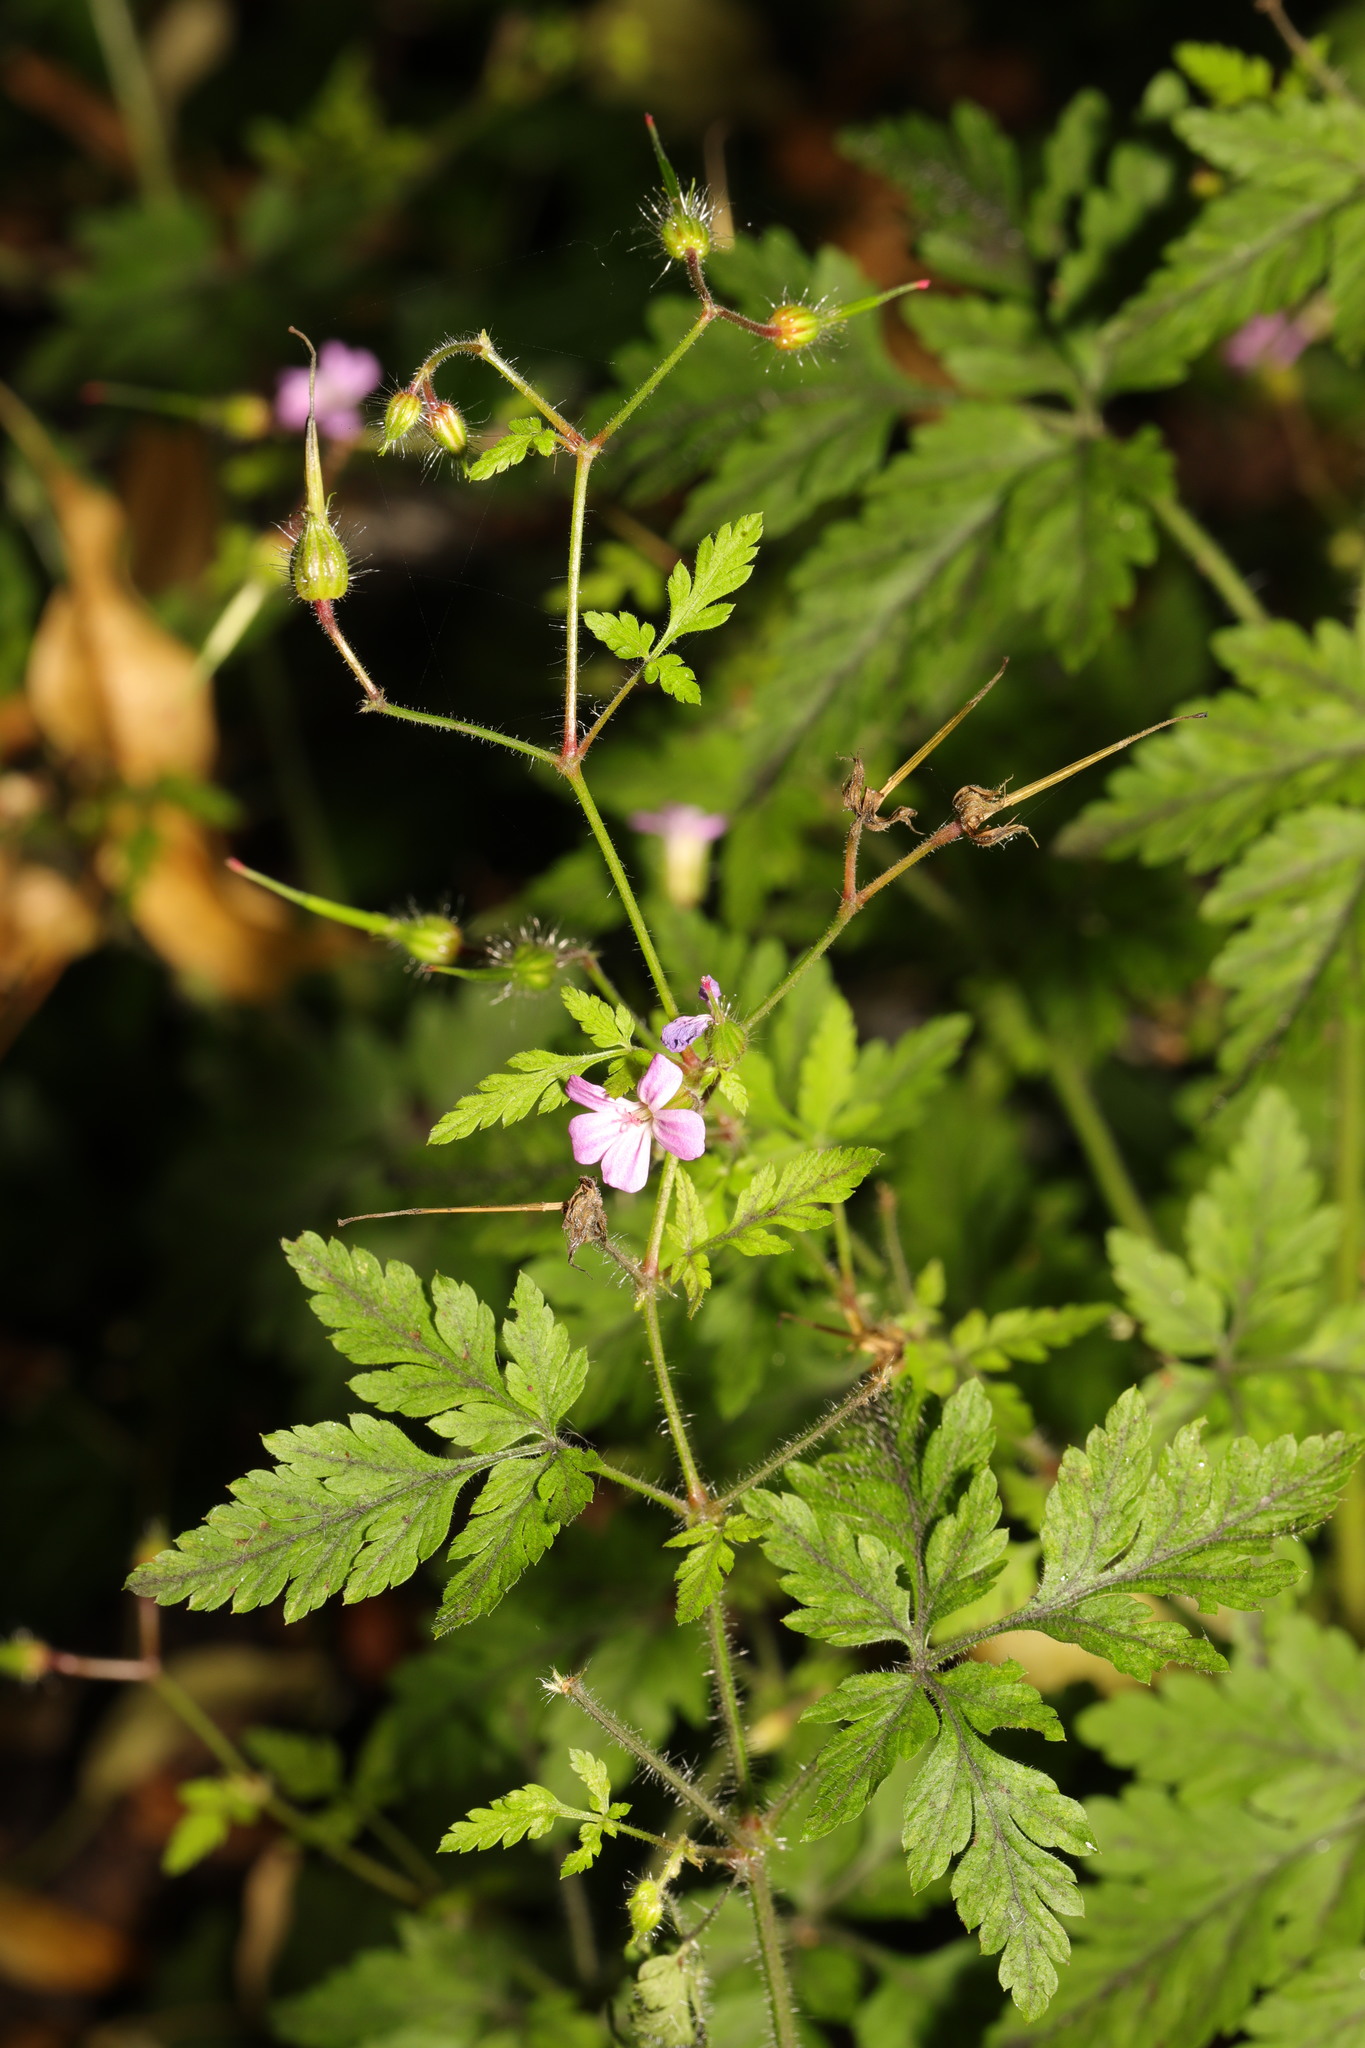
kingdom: Plantae
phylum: Tracheophyta
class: Magnoliopsida
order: Geraniales
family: Geraniaceae
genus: Geranium
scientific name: Geranium robertianum
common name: Herb-robert
